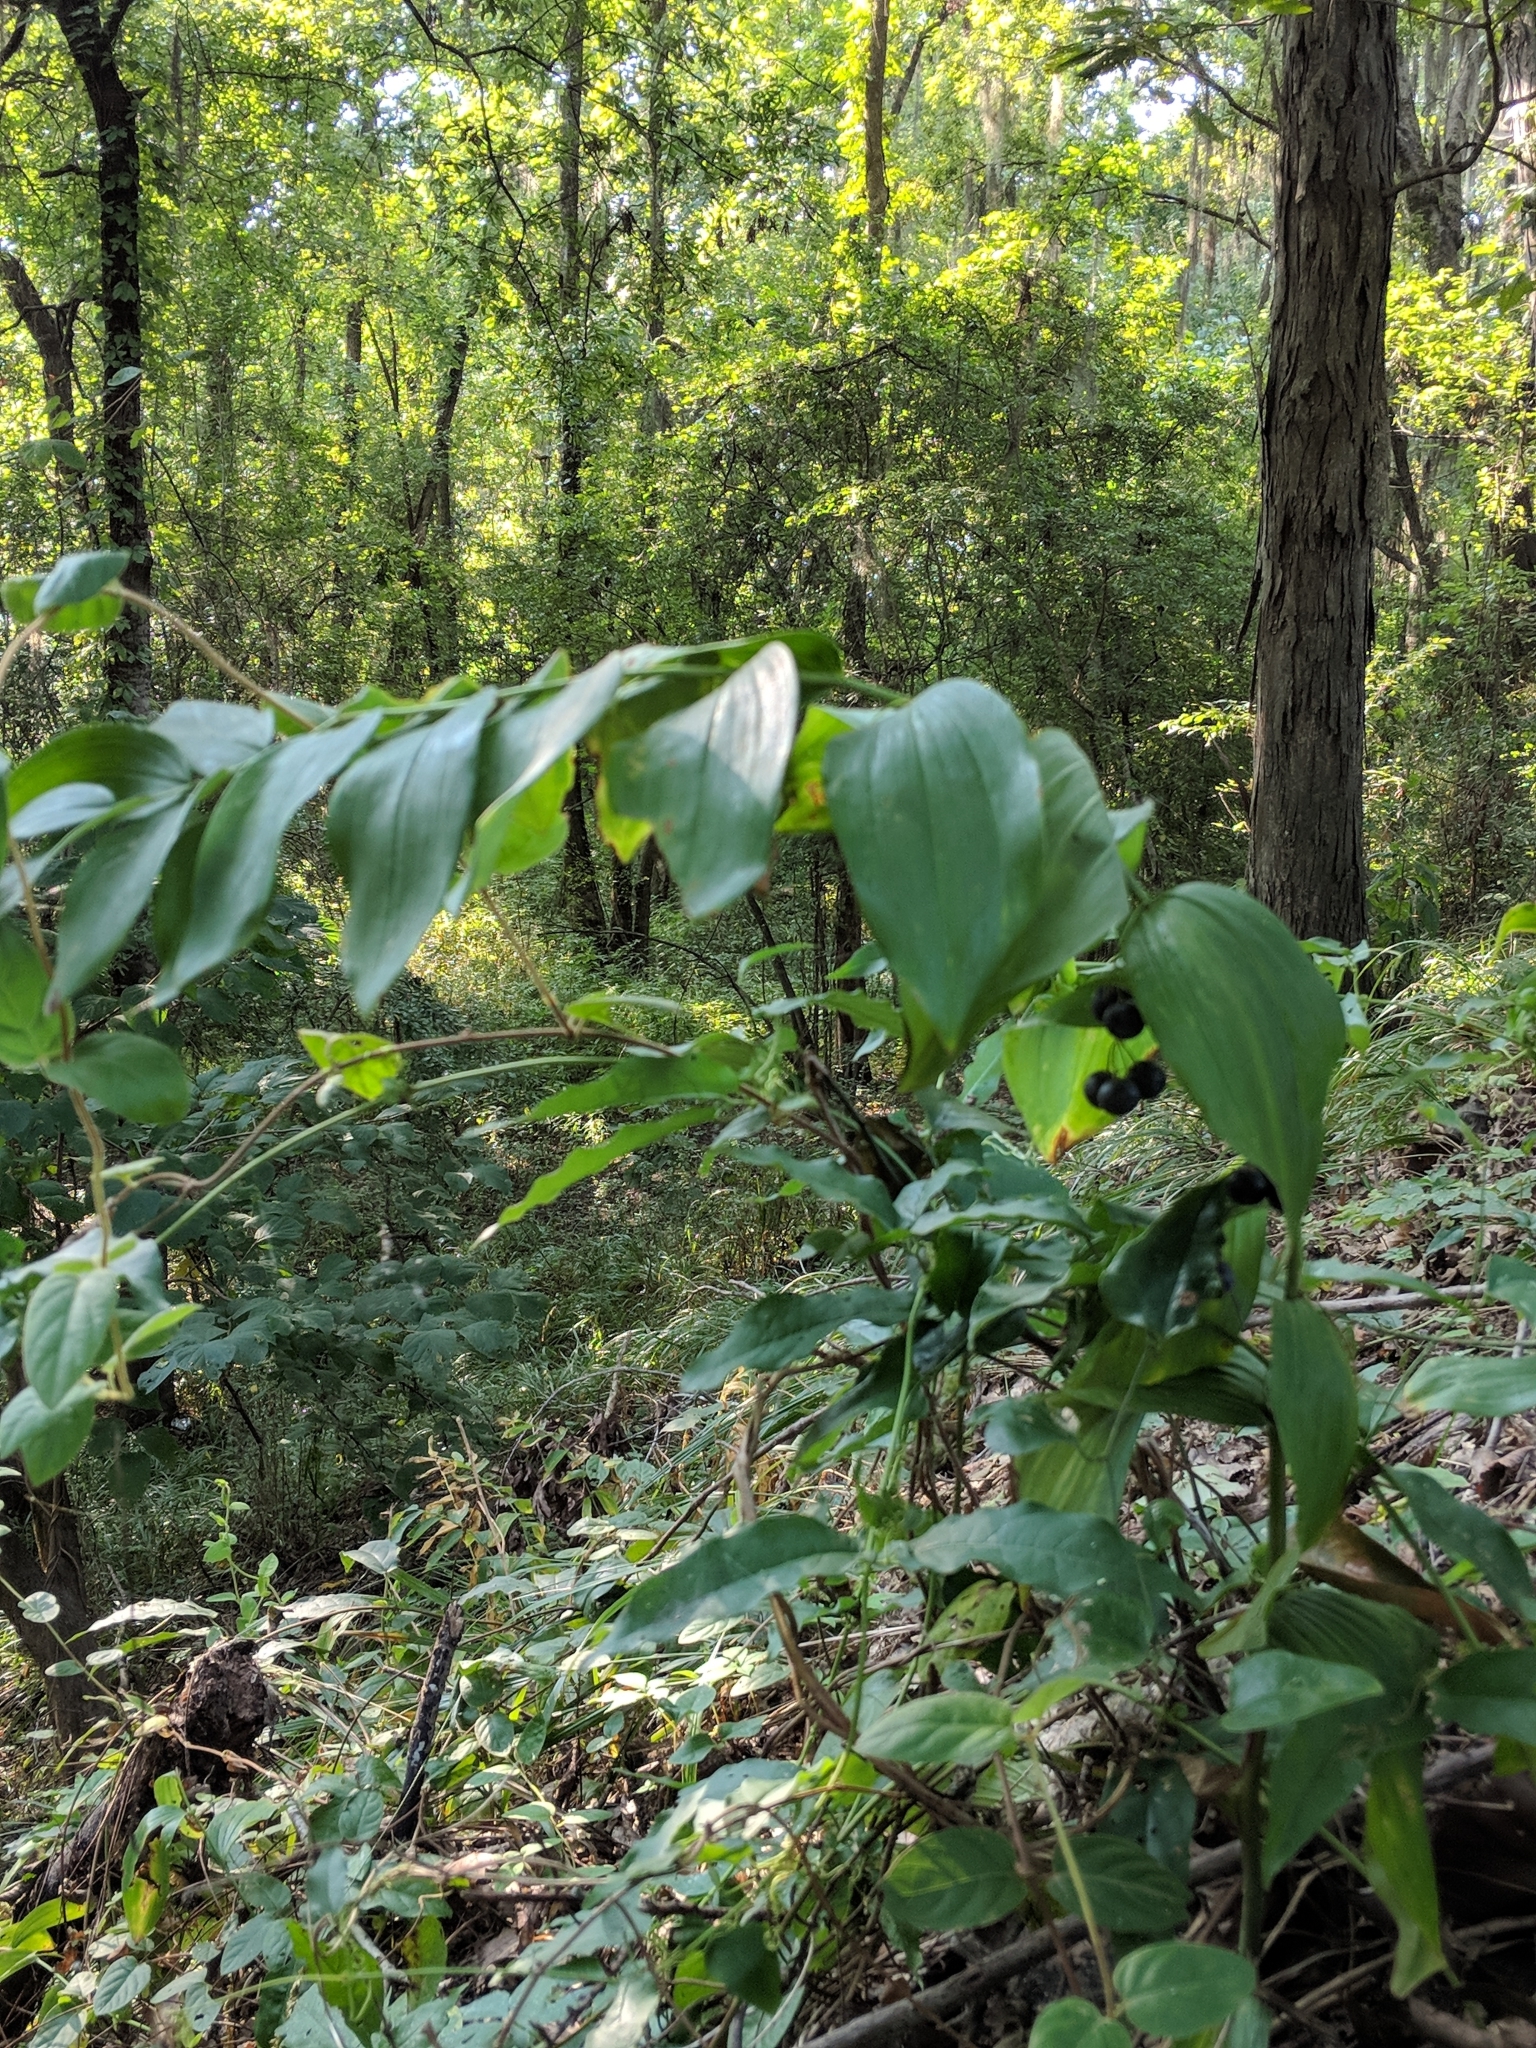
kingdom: Plantae
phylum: Tracheophyta
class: Liliopsida
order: Asparagales
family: Asparagaceae
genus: Polygonatum
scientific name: Polygonatum biflorum
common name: American solomon's-seal
